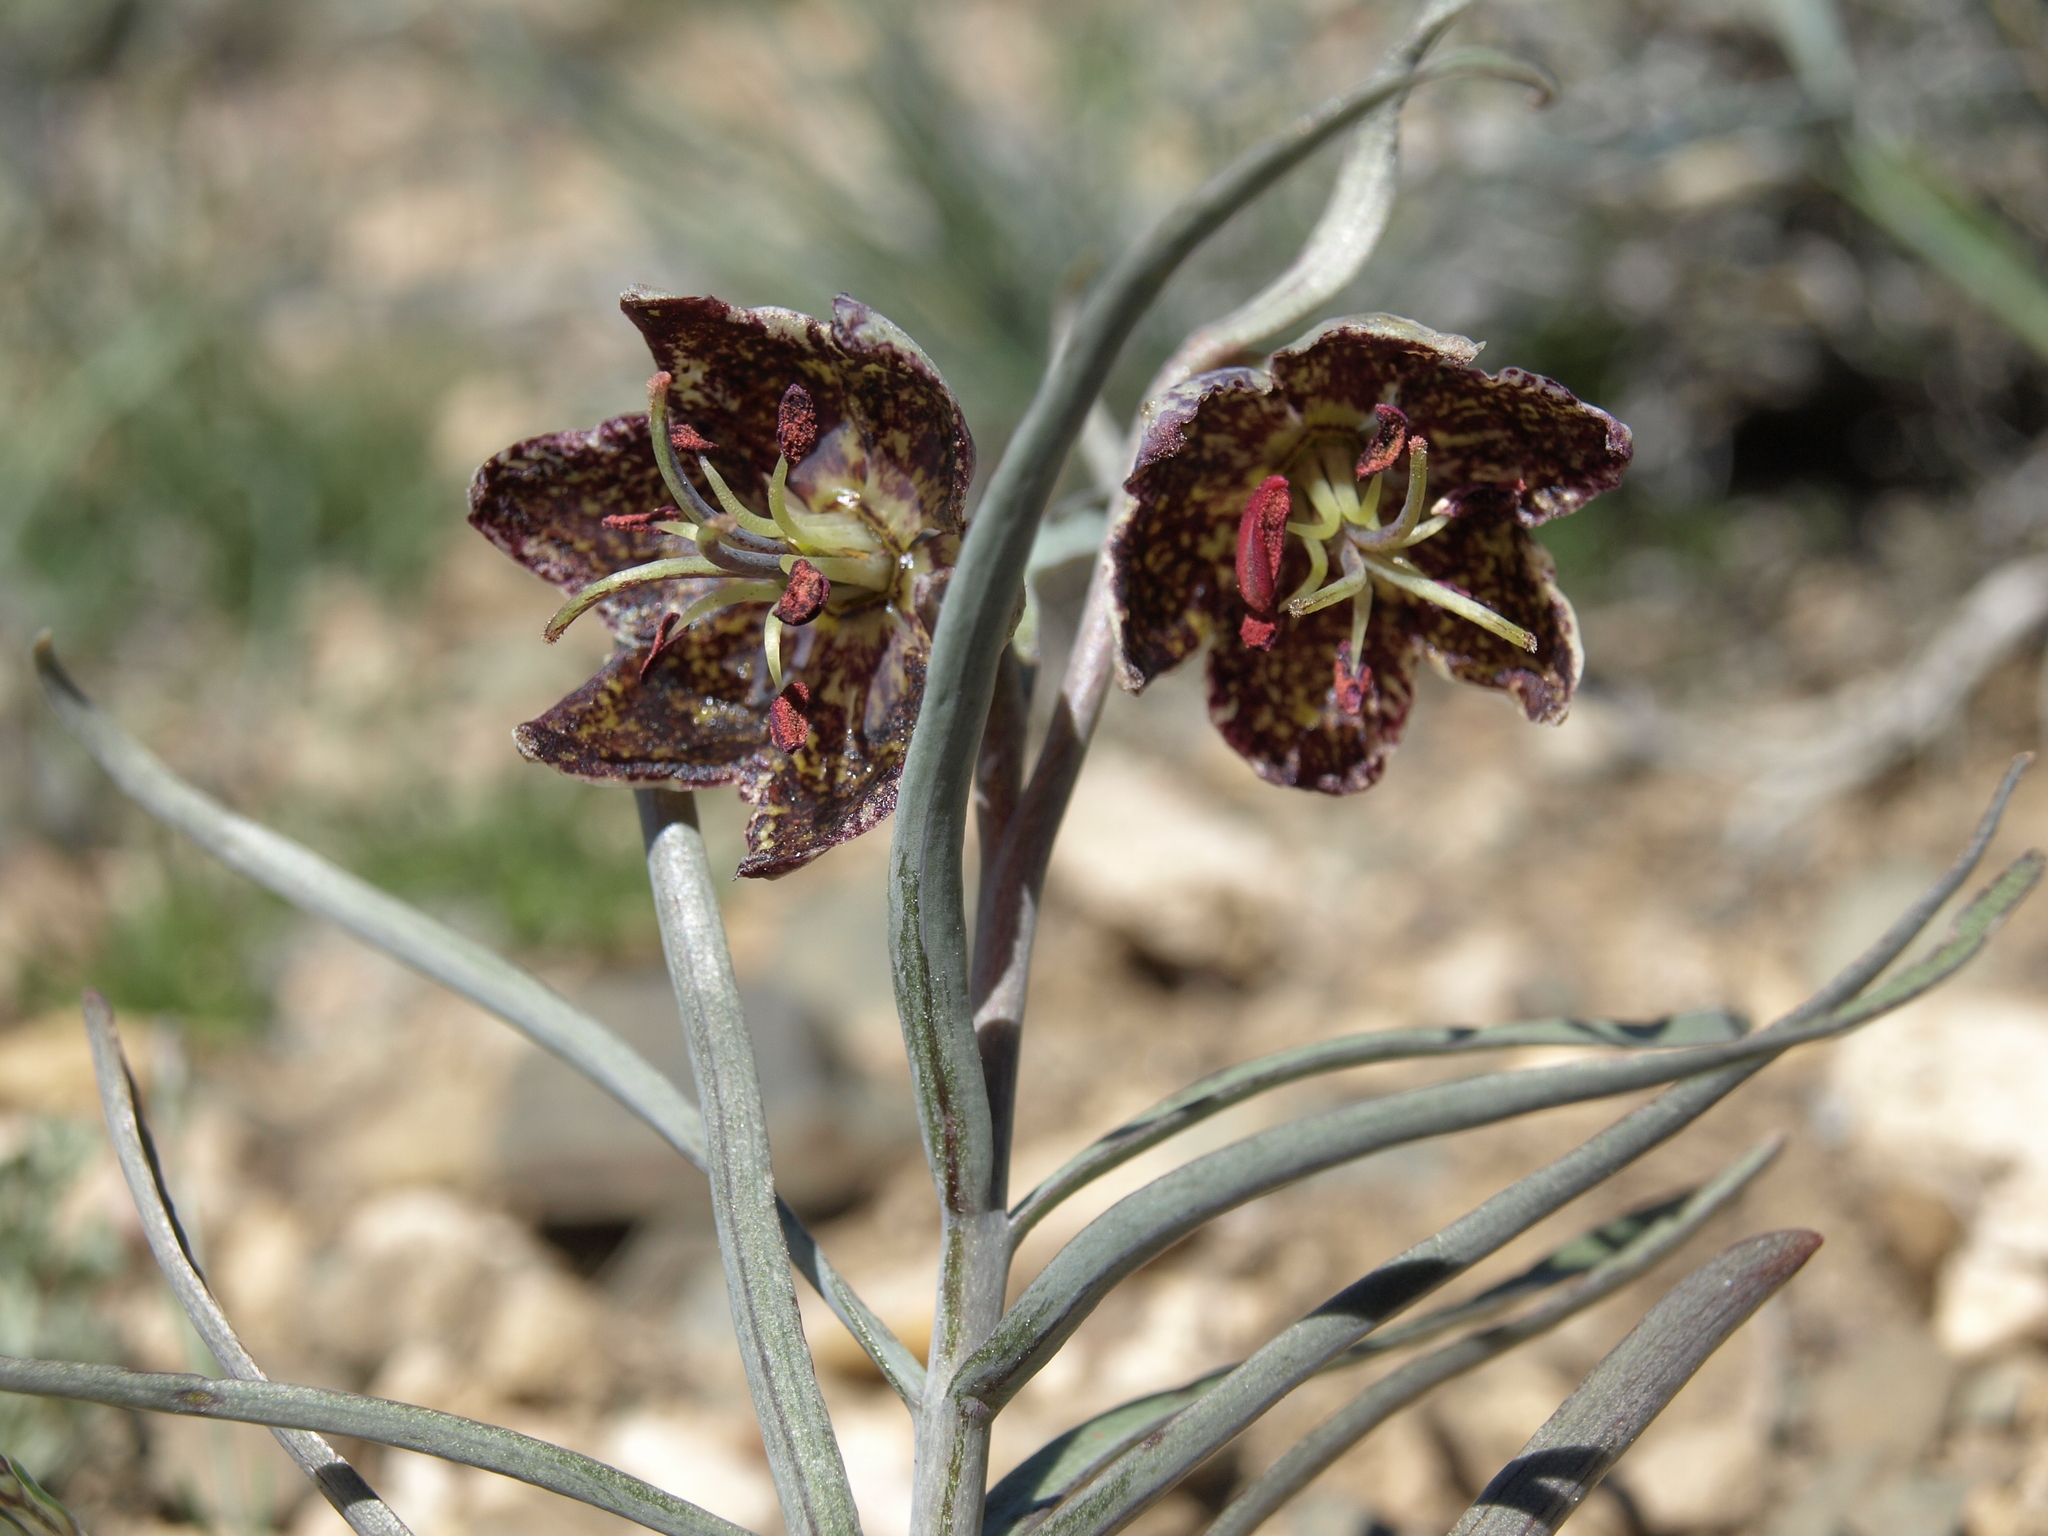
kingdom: Plantae
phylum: Tracheophyta
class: Liliopsida
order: Liliales
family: Liliaceae
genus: Fritillaria
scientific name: Fritillaria atropurpurea
